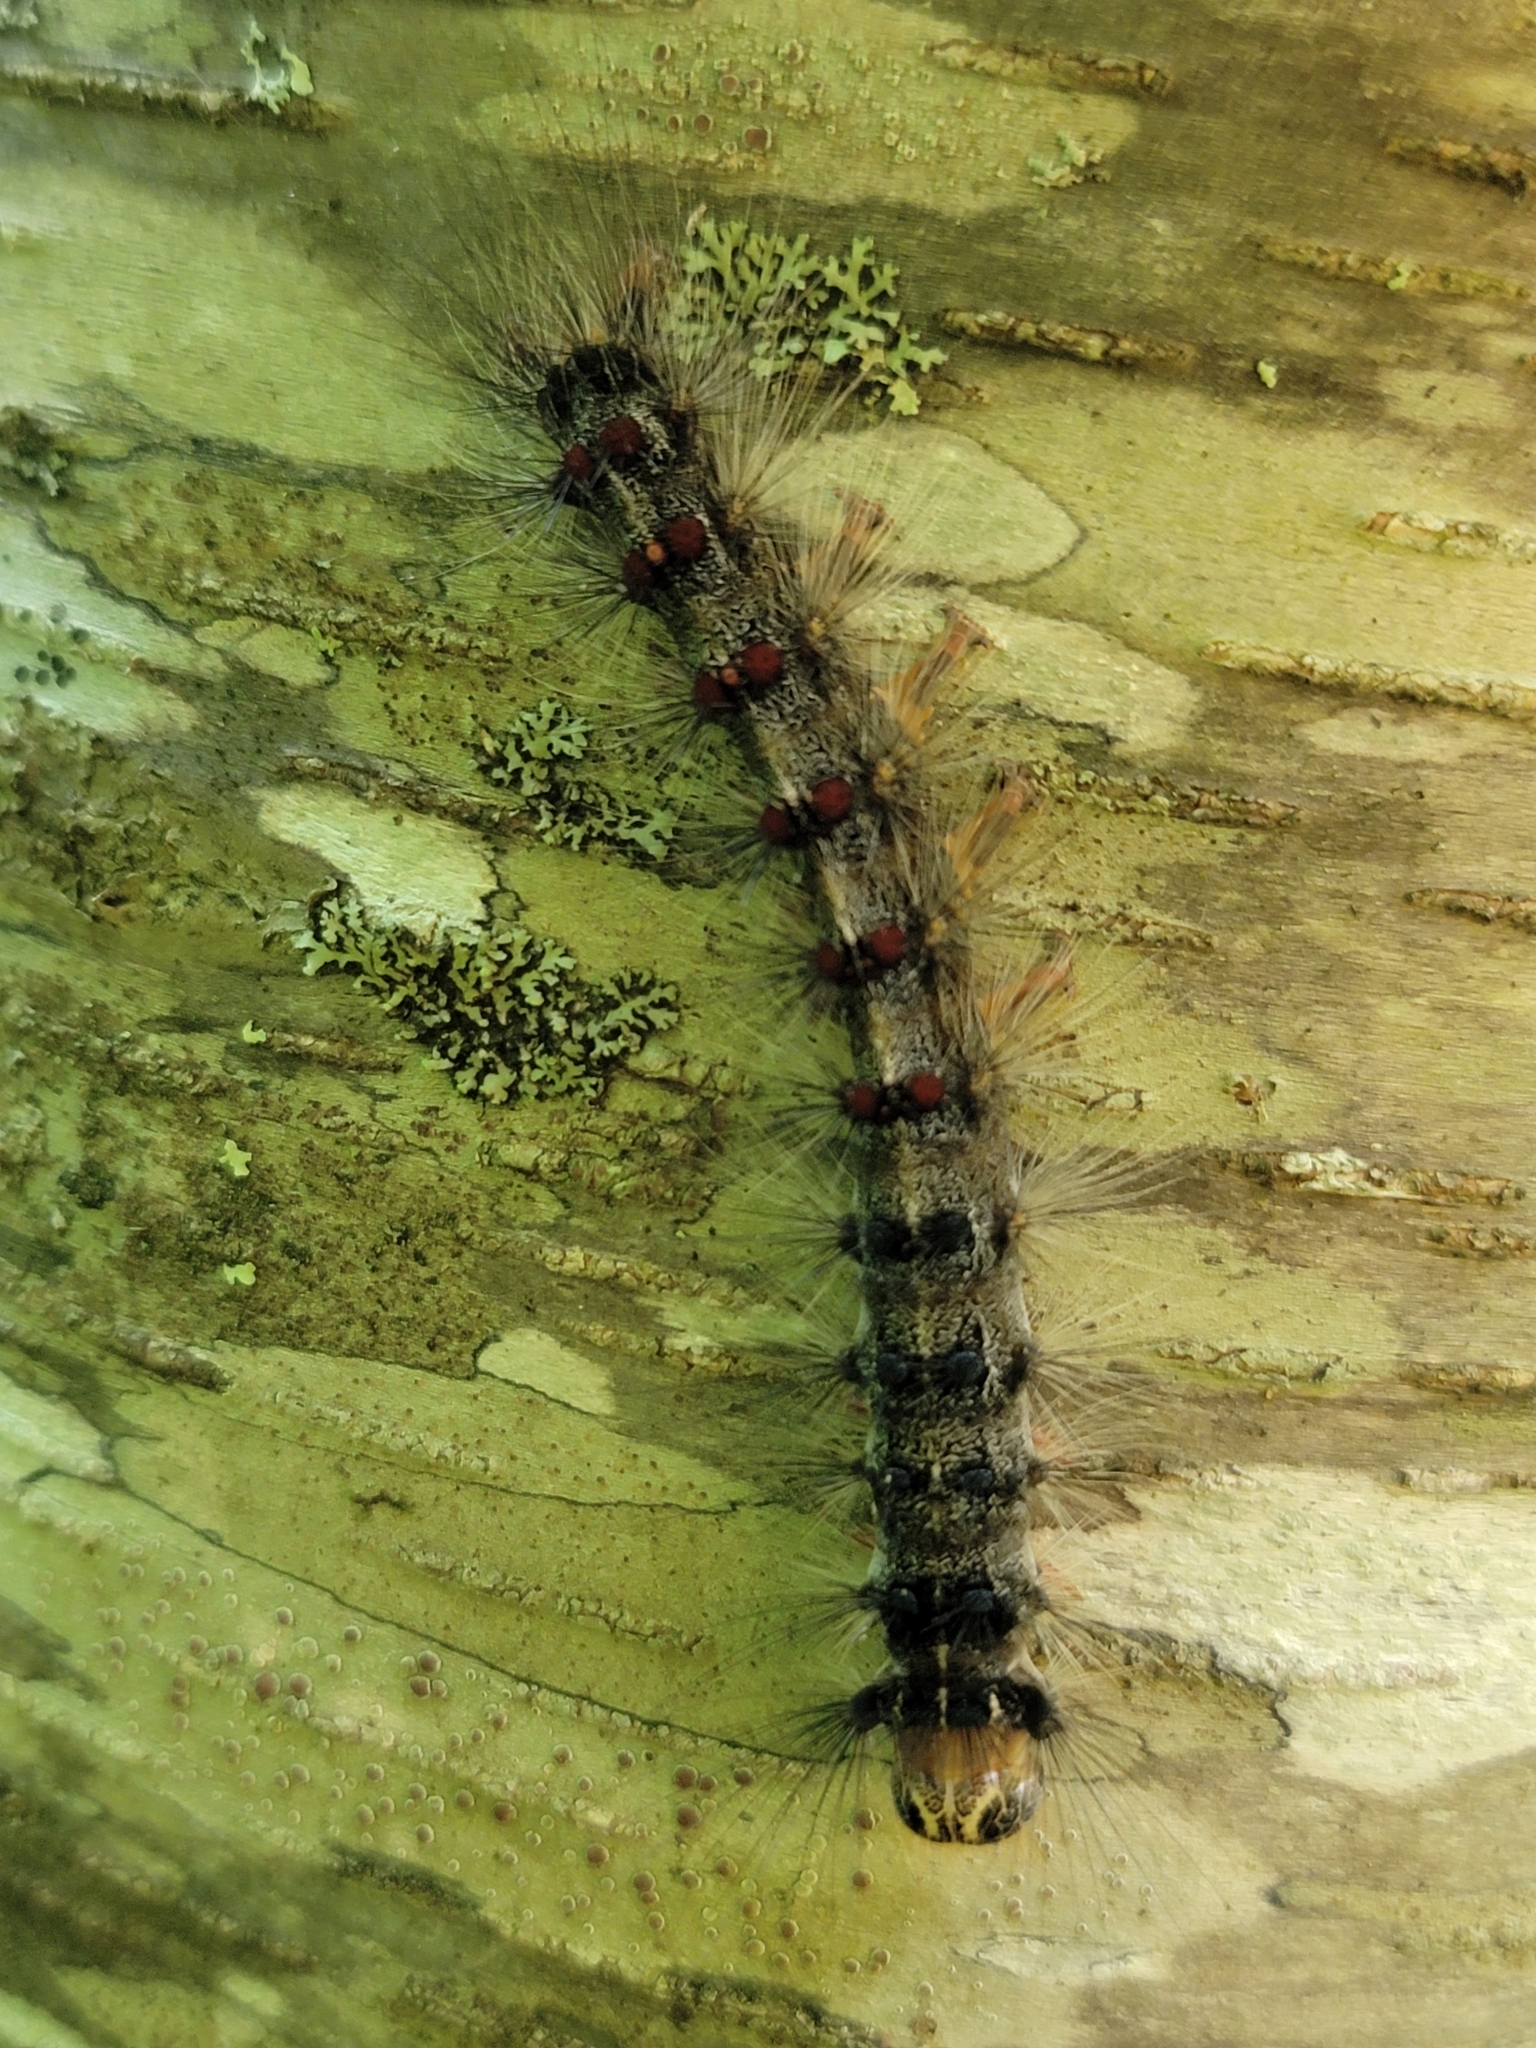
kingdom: Animalia
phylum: Arthropoda
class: Insecta
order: Lepidoptera
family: Erebidae
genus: Lymantria
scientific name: Lymantria dispar
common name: Gypsy moth
